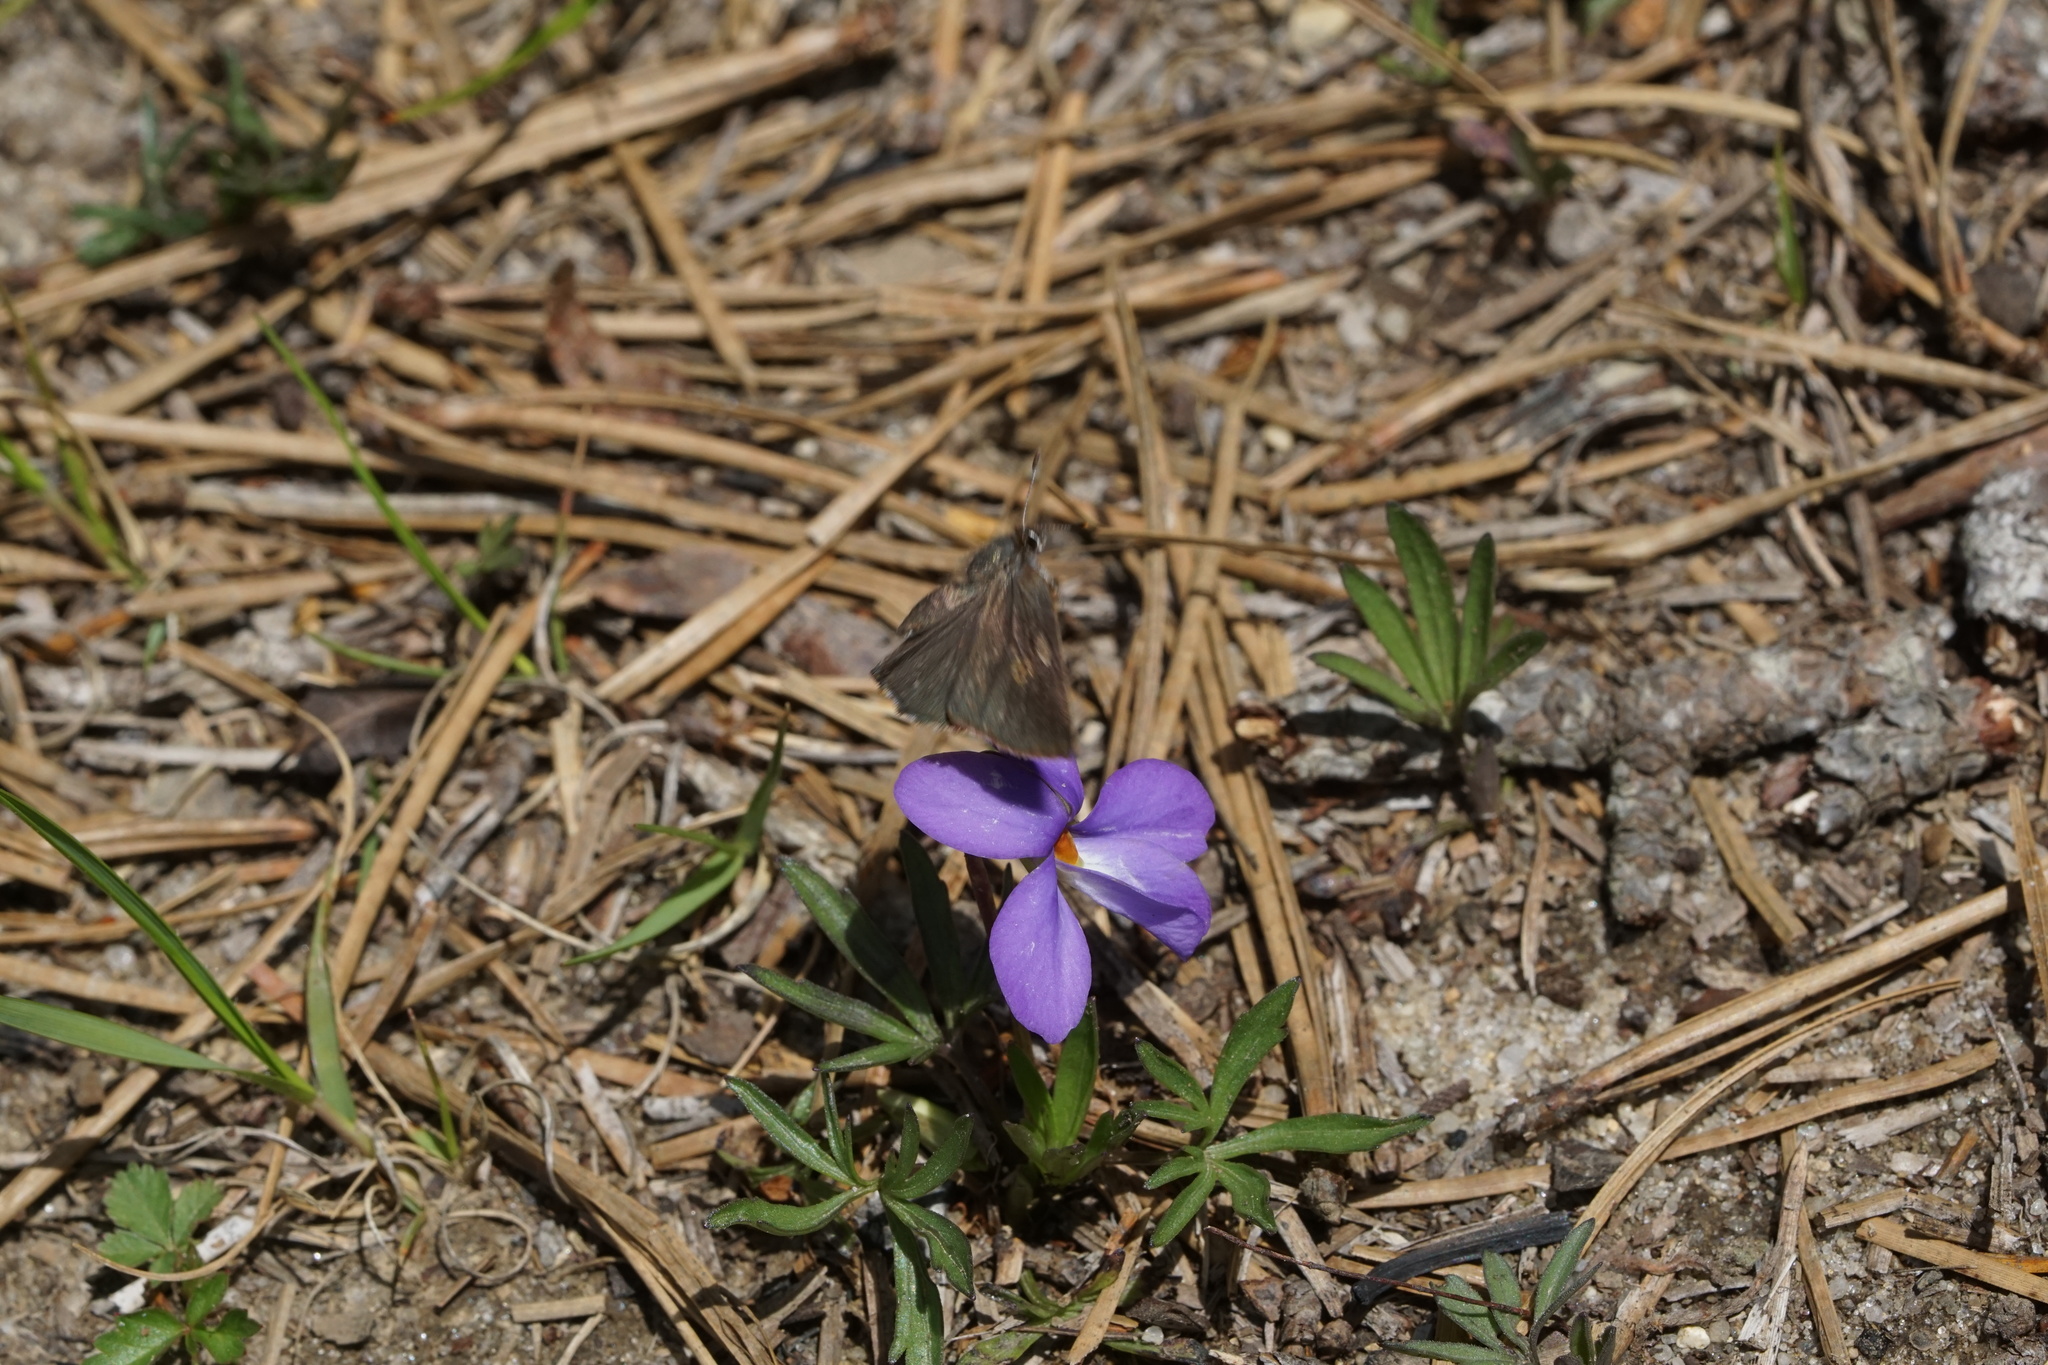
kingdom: Animalia
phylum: Arthropoda
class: Insecta
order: Lepidoptera
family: Lycaenidae
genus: Incisalia
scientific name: Incisalia irioides
